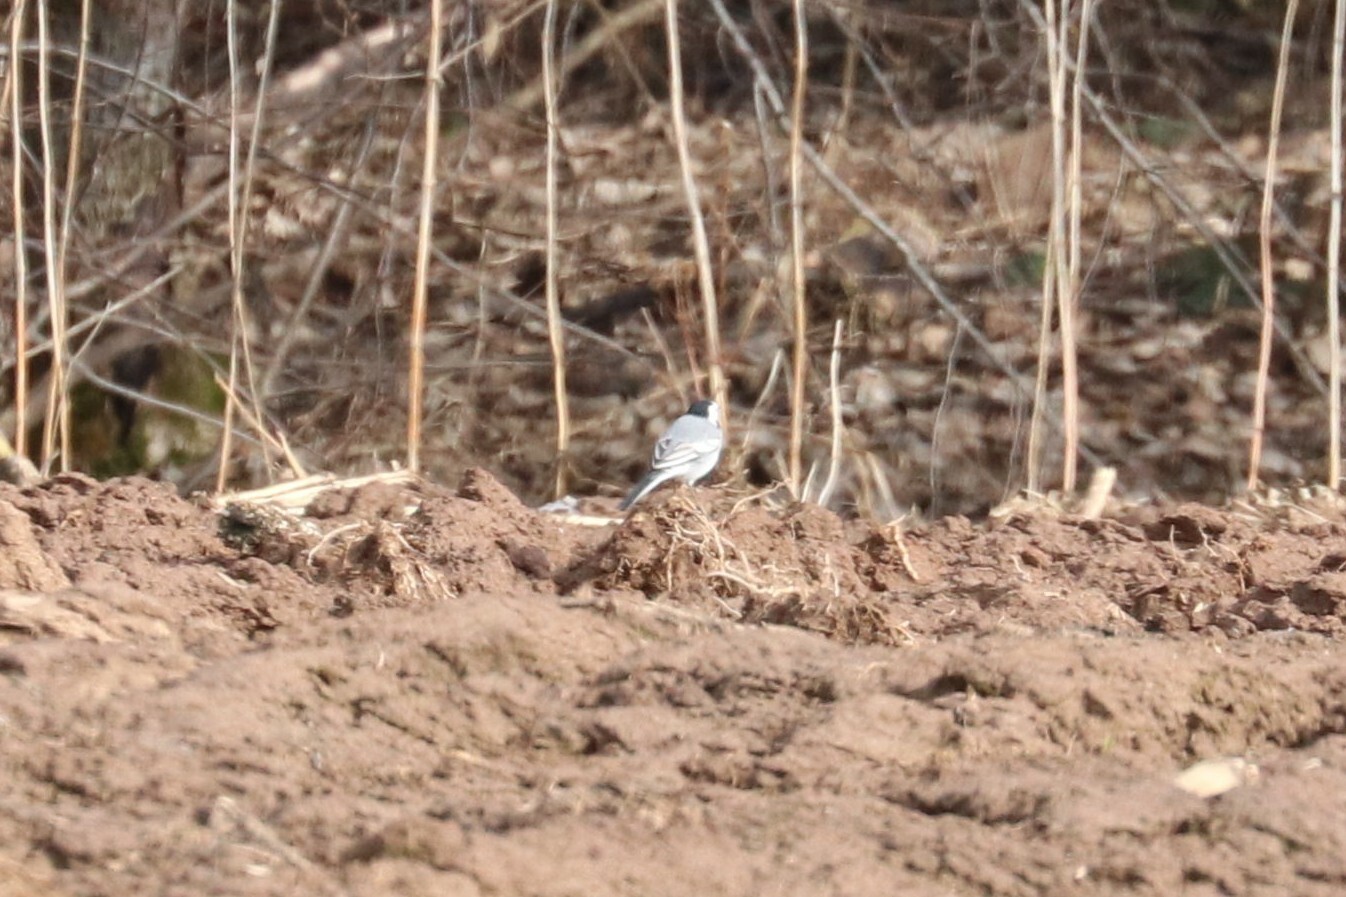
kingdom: Animalia
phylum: Chordata
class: Aves
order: Passeriformes
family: Motacillidae
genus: Motacilla
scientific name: Motacilla alba
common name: White wagtail
